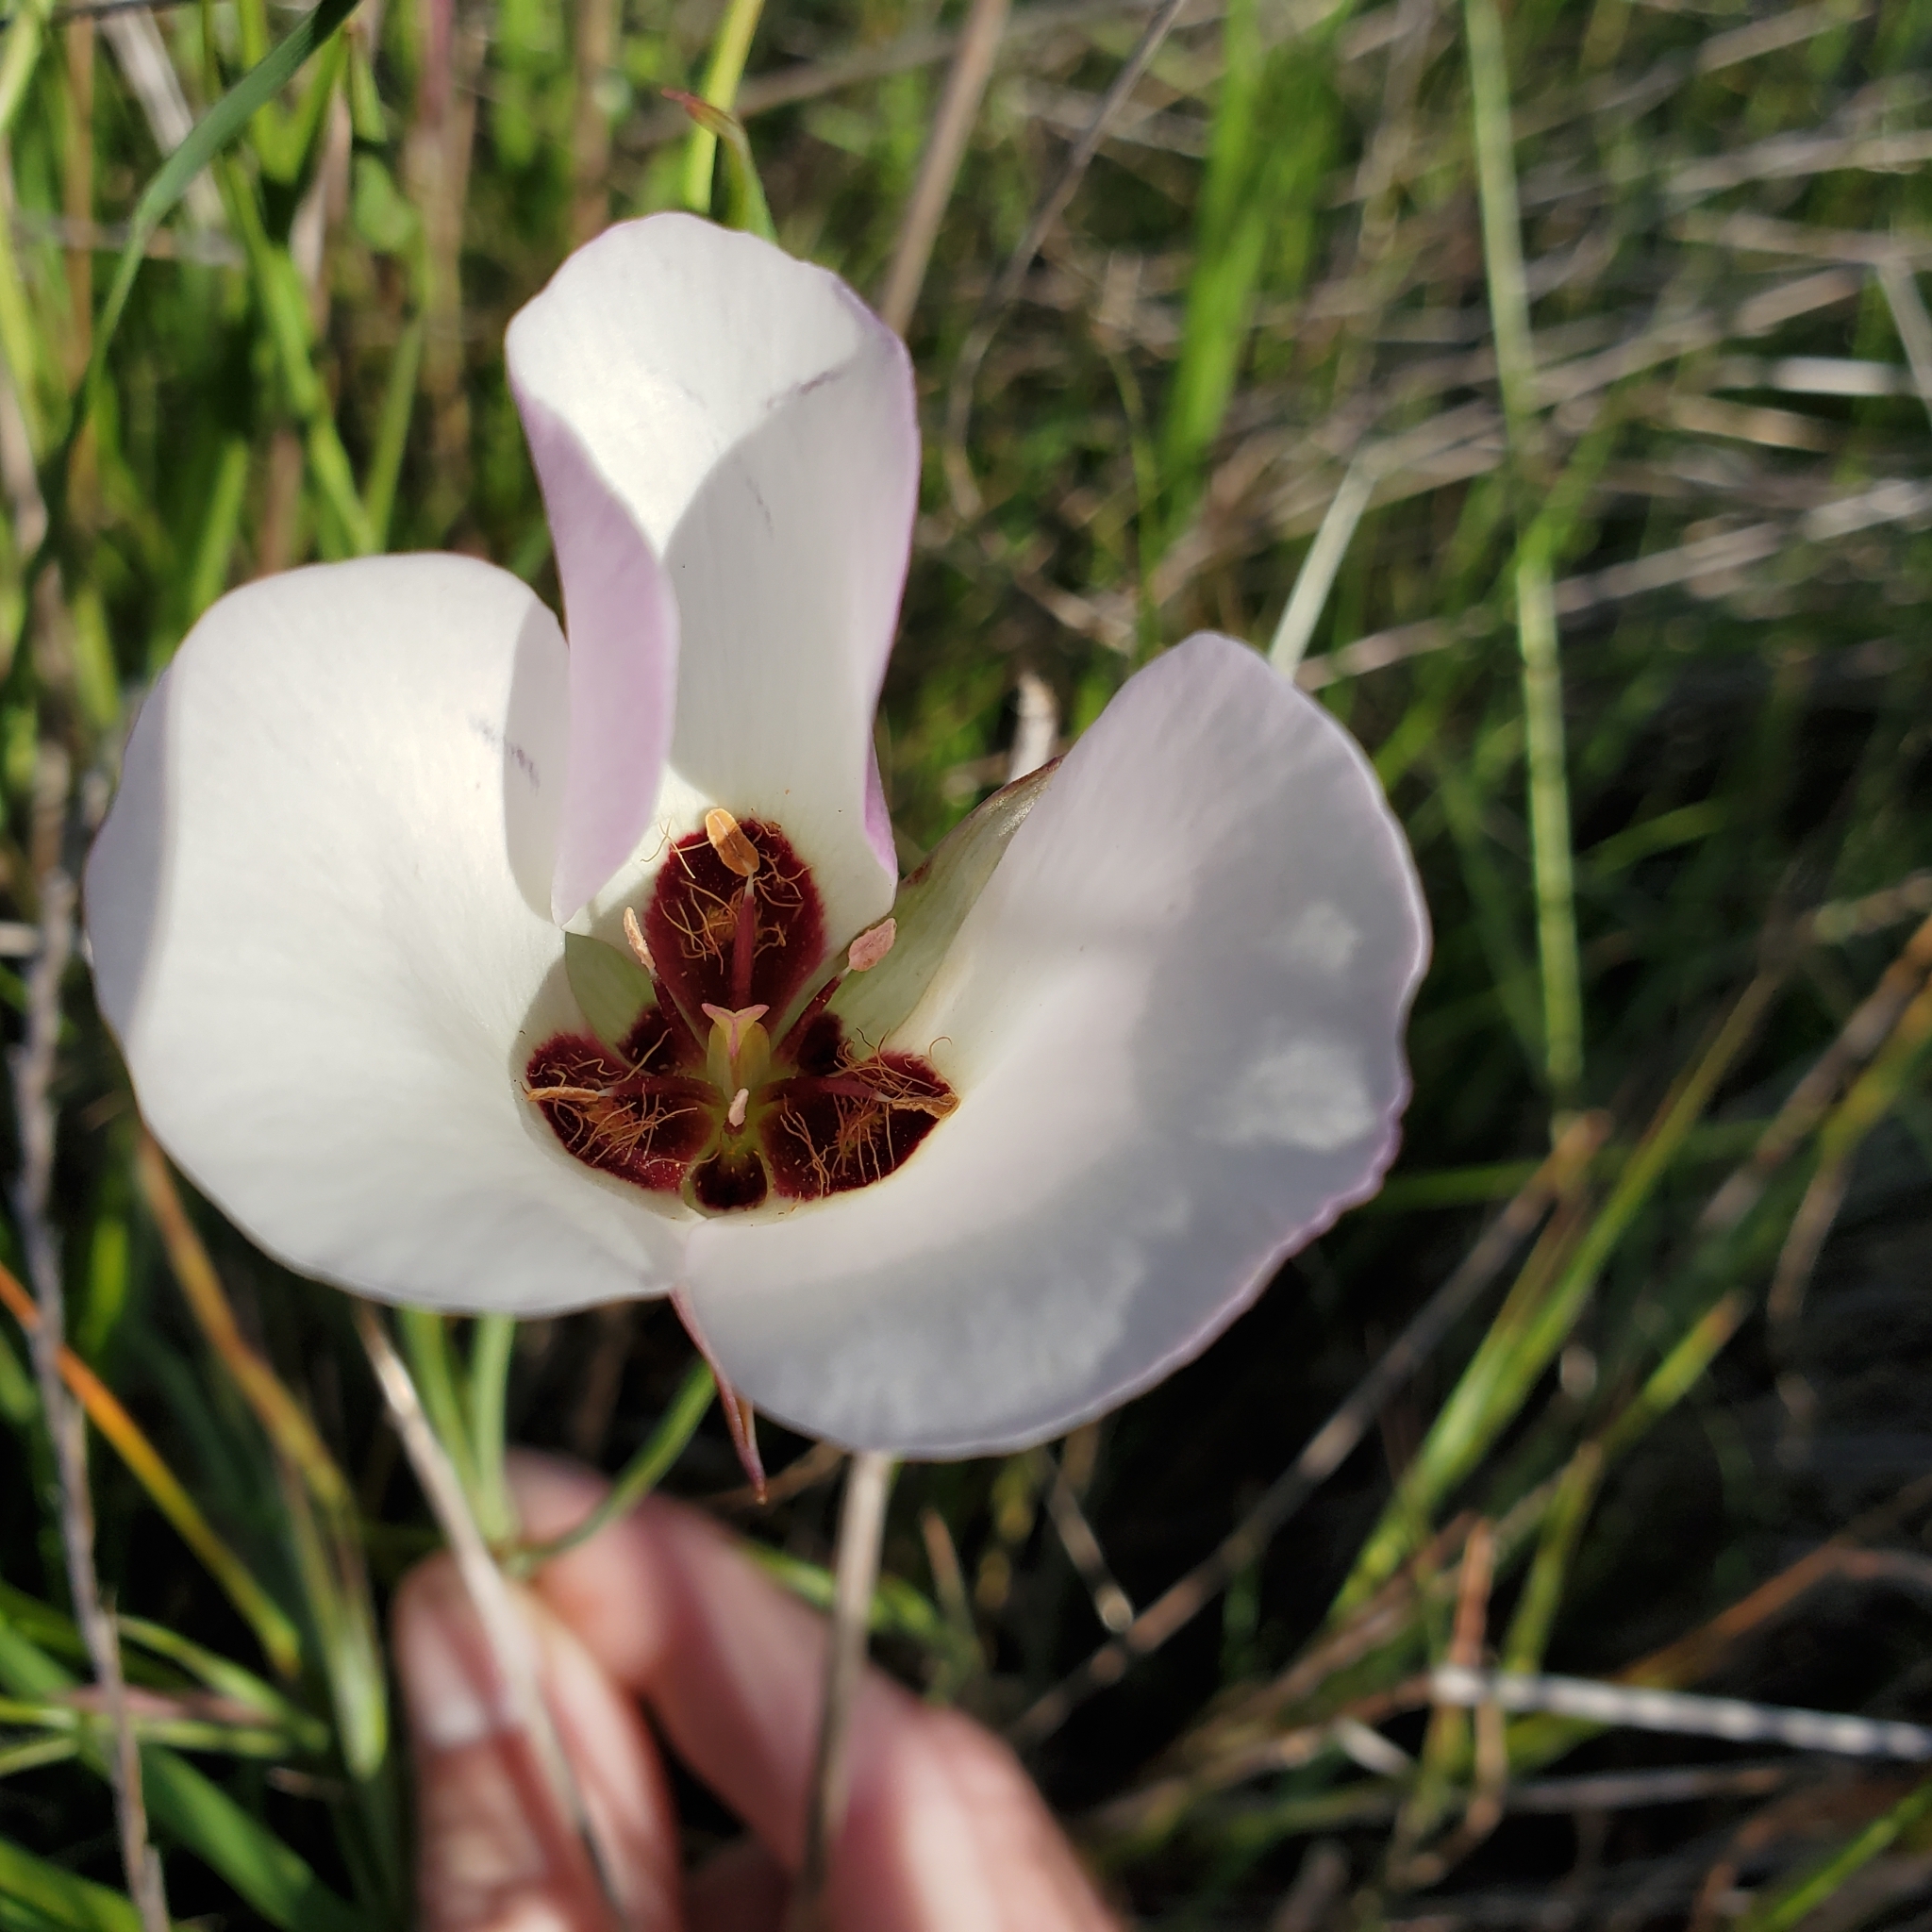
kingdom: Plantae
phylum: Tracheophyta
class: Liliopsida
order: Liliales
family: Liliaceae
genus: Calochortus
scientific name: Calochortus catalinae
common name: Catalina mariposa-lily
